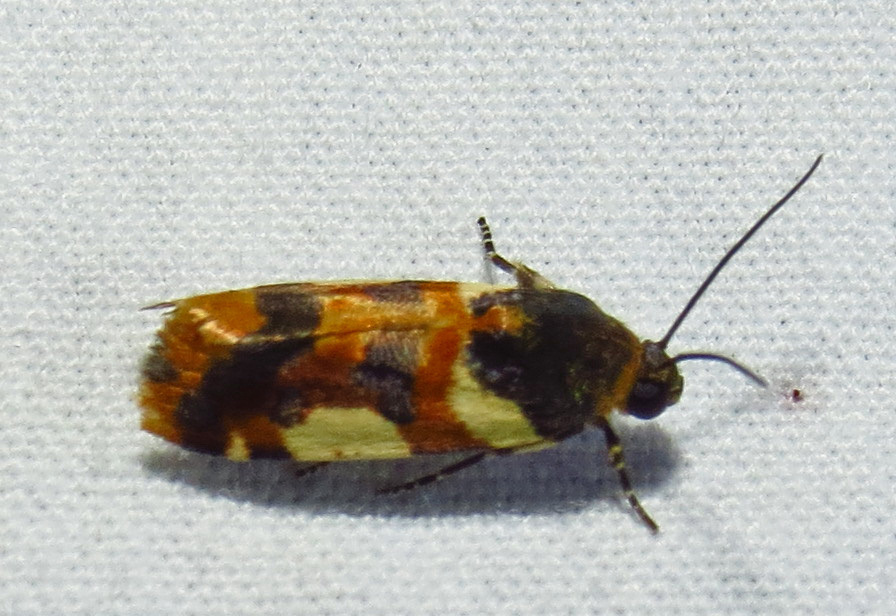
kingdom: Animalia
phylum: Arthropoda
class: Insecta
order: Lepidoptera
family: Noctuidae
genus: Acontia
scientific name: Acontia dama
